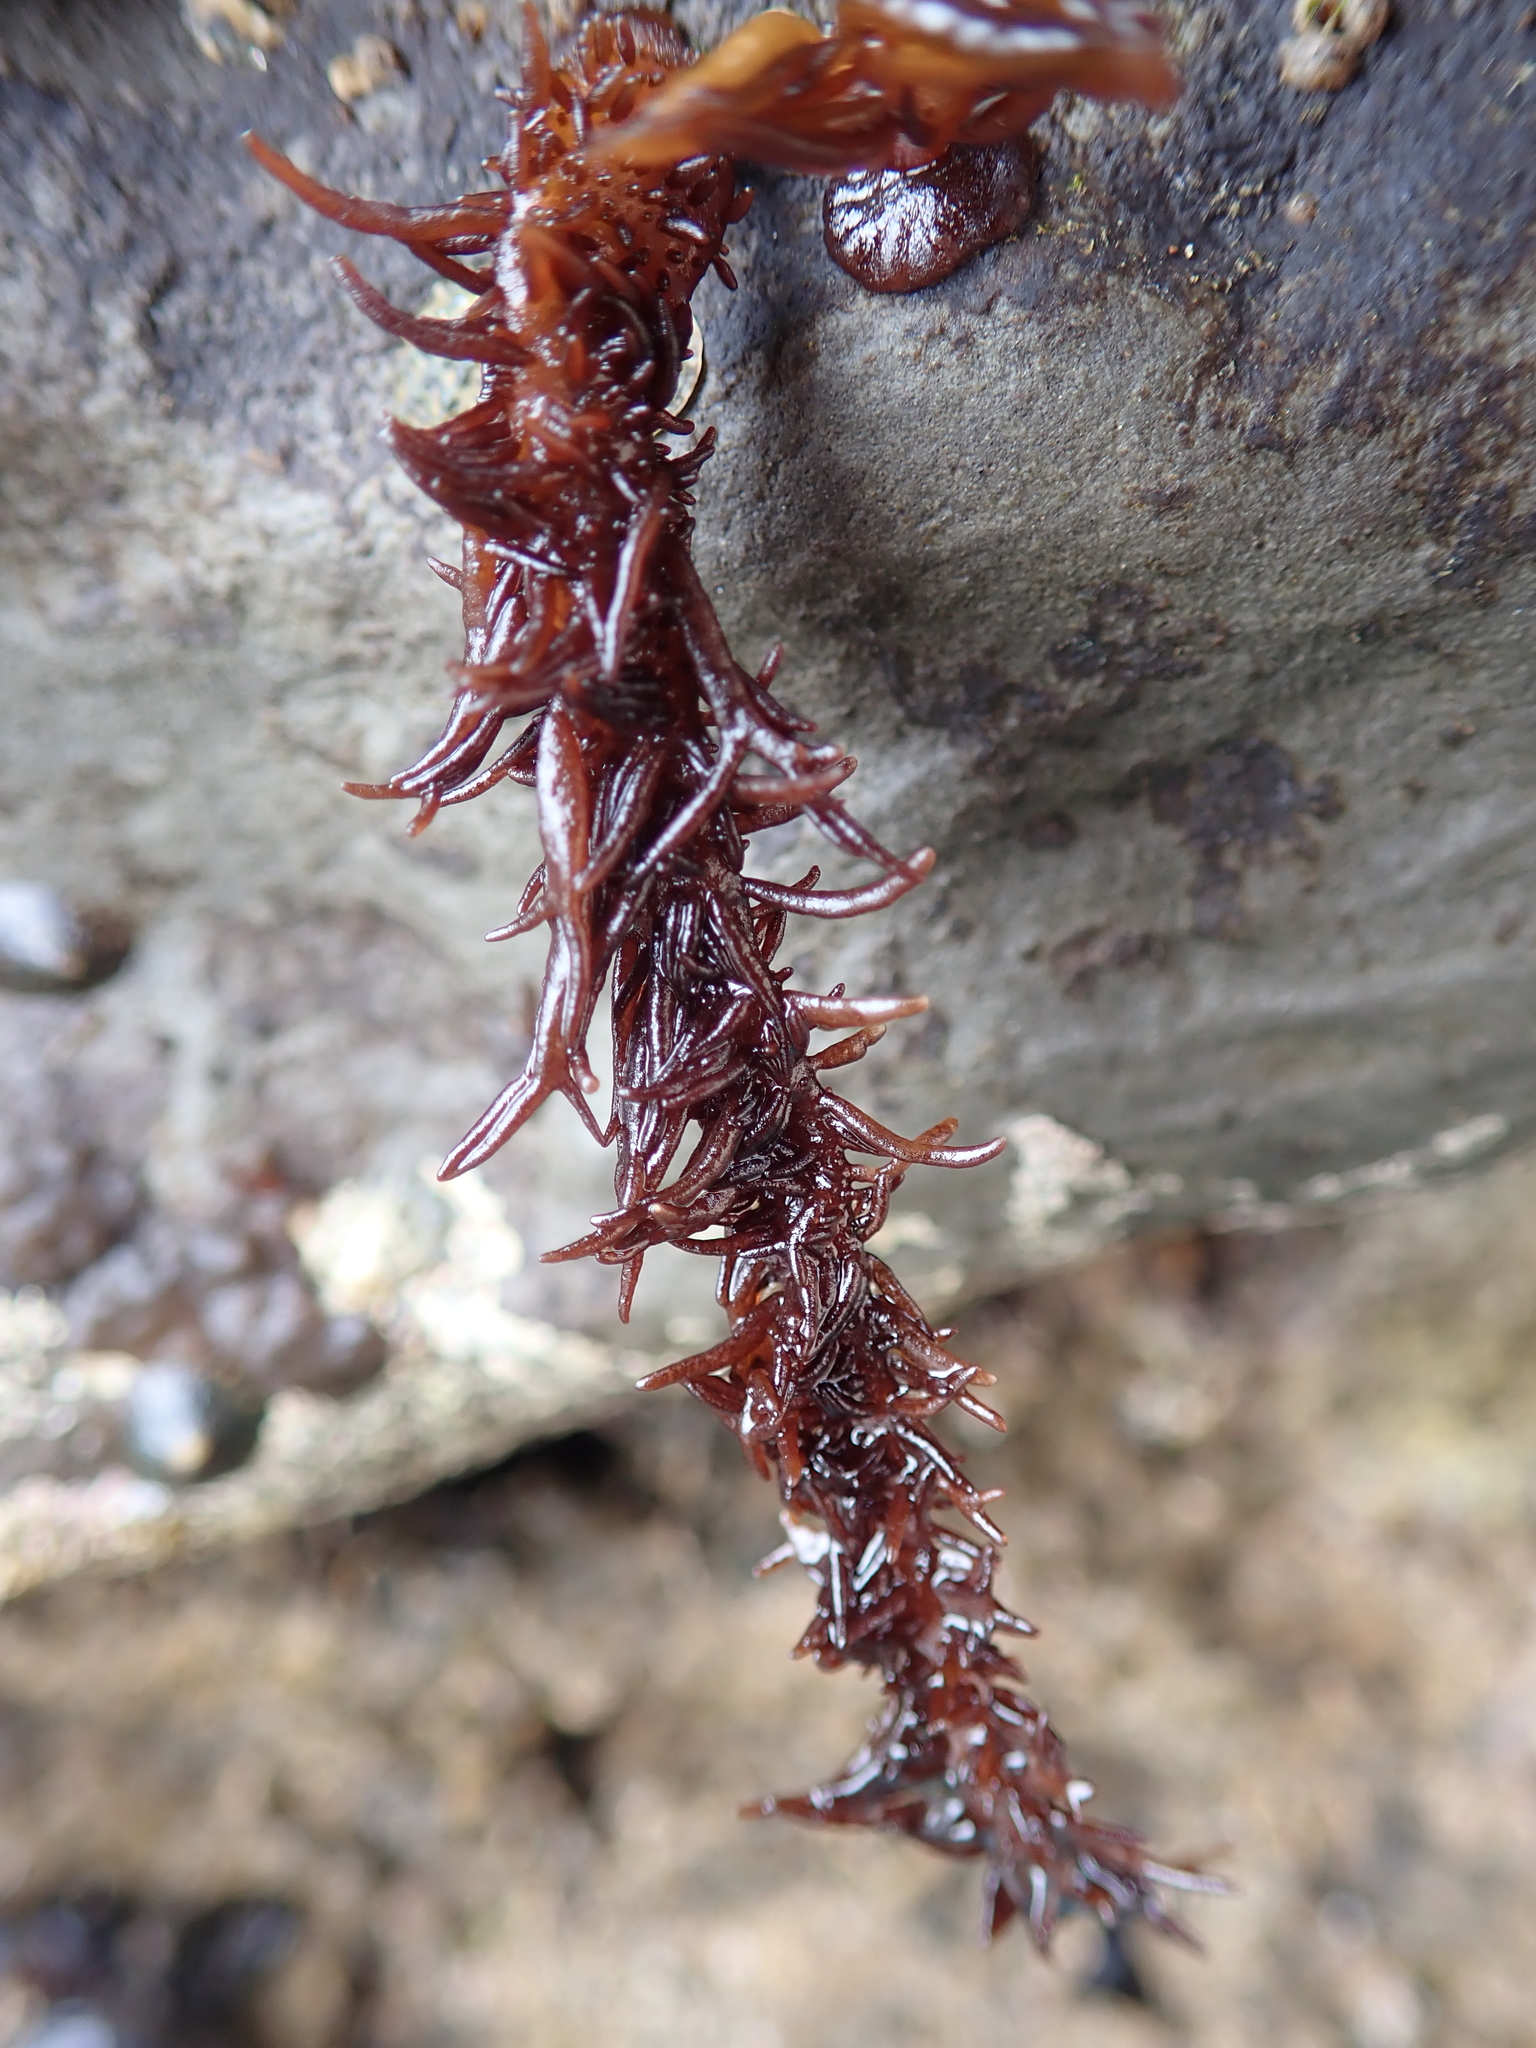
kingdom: Plantae
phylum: Rhodophyta
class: Florideophyceae
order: Nemaliales
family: Liagoraceae
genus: Cumagloia
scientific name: Cumagloia andersonii
